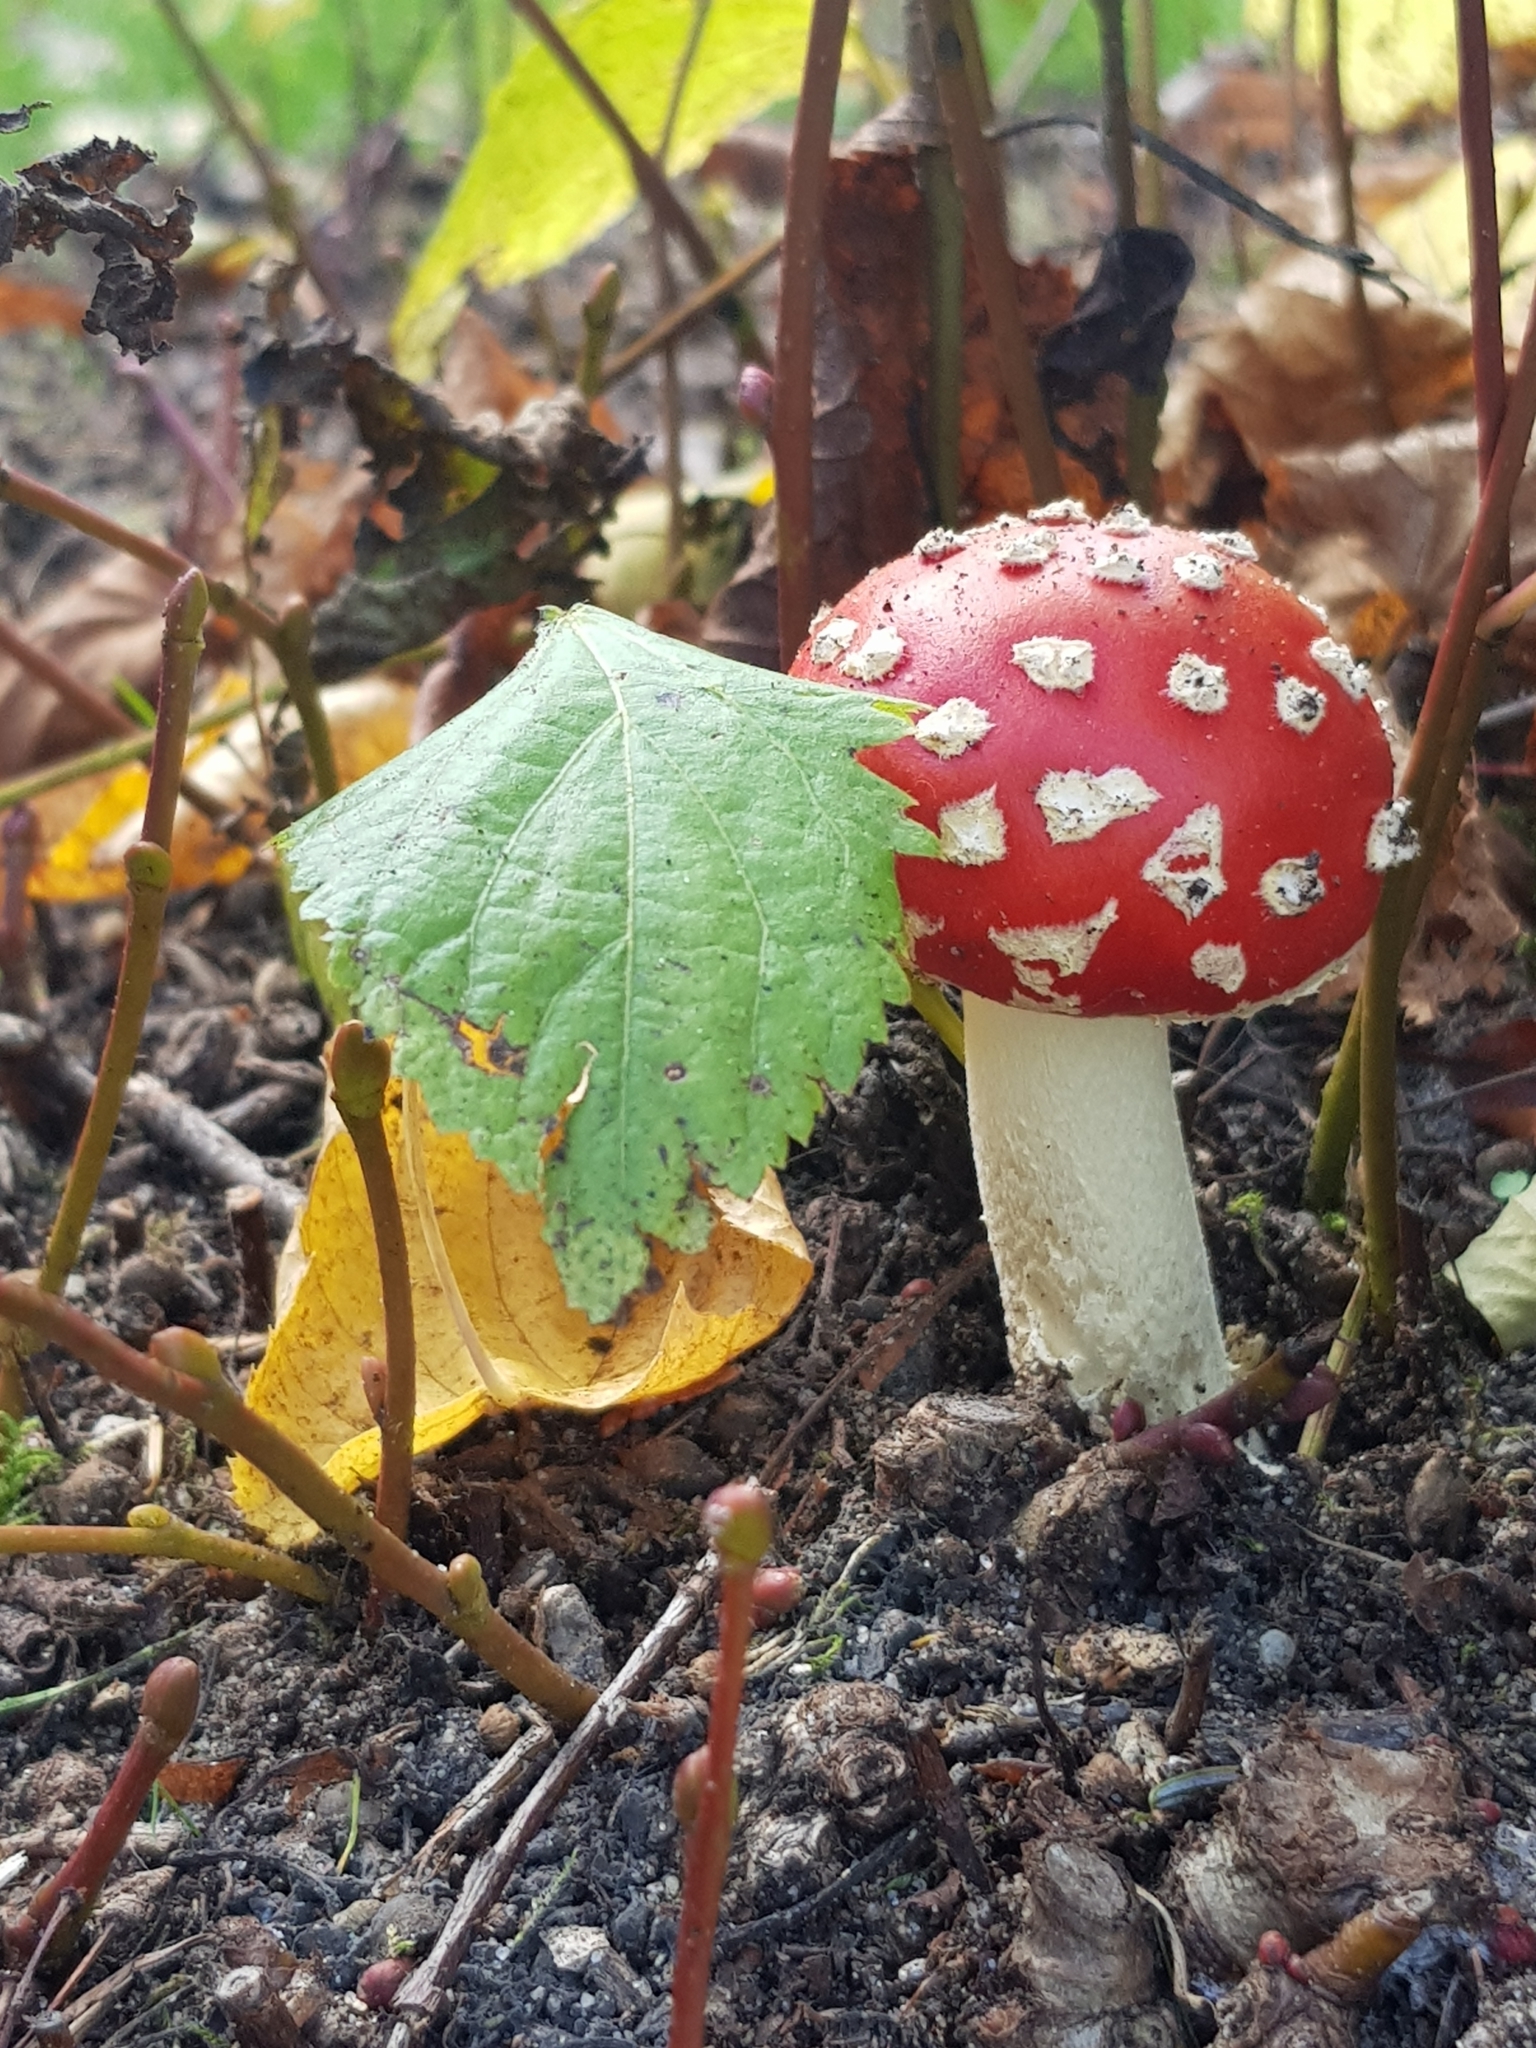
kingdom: Fungi
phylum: Basidiomycota
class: Agaricomycetes
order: Agaricales
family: Amanitaceae
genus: Amanita
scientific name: Amanita muscaria
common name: Fly agaric
